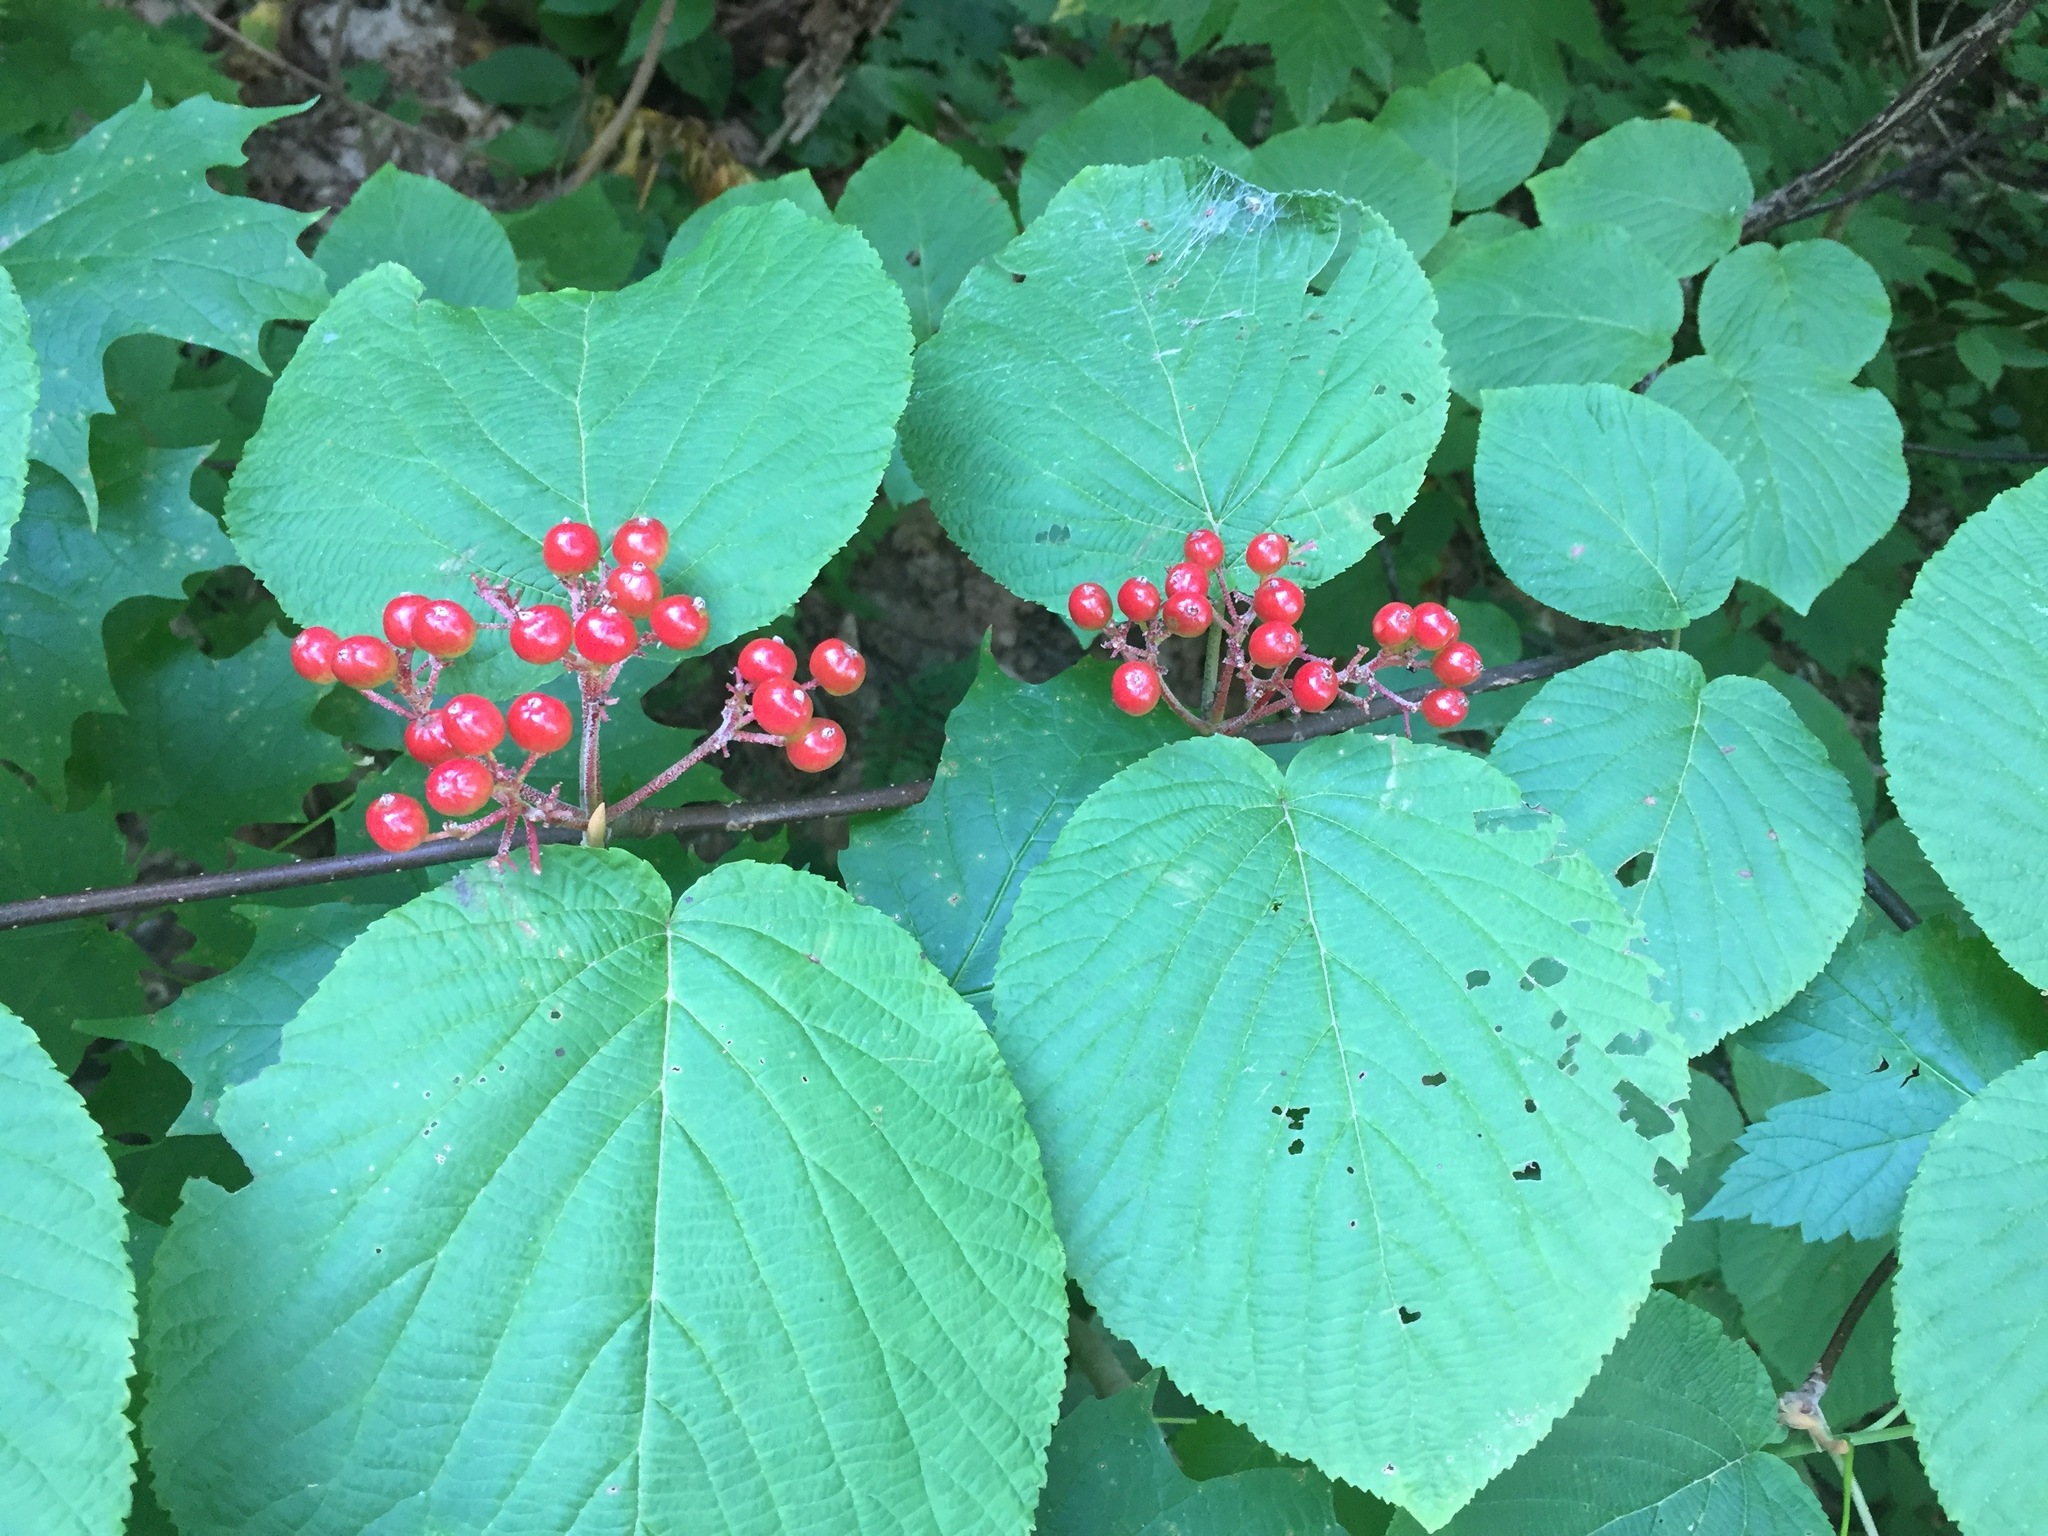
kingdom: Plantae
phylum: Tracheophyta
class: Magnoliopsida
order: Dipsacales
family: Viburnaceae
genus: Viburnum
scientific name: Viburnum lantanoides
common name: Hobblebush
